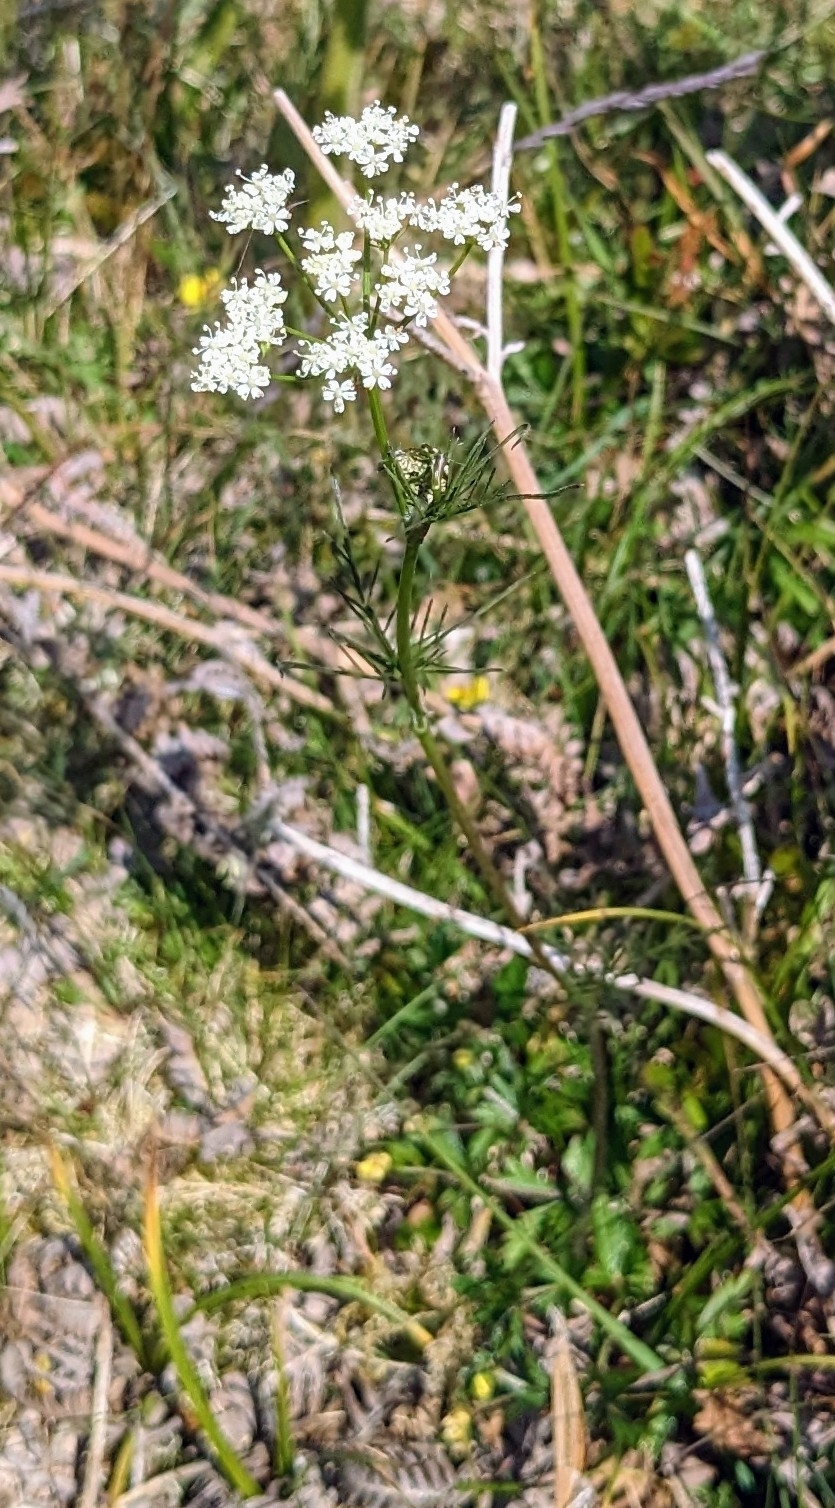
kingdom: Plantae
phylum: Tracheophyta
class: Magnoliopsida
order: Apiales
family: Apiaceae
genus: Conopodium
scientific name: Conopodium majus
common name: Pignut
